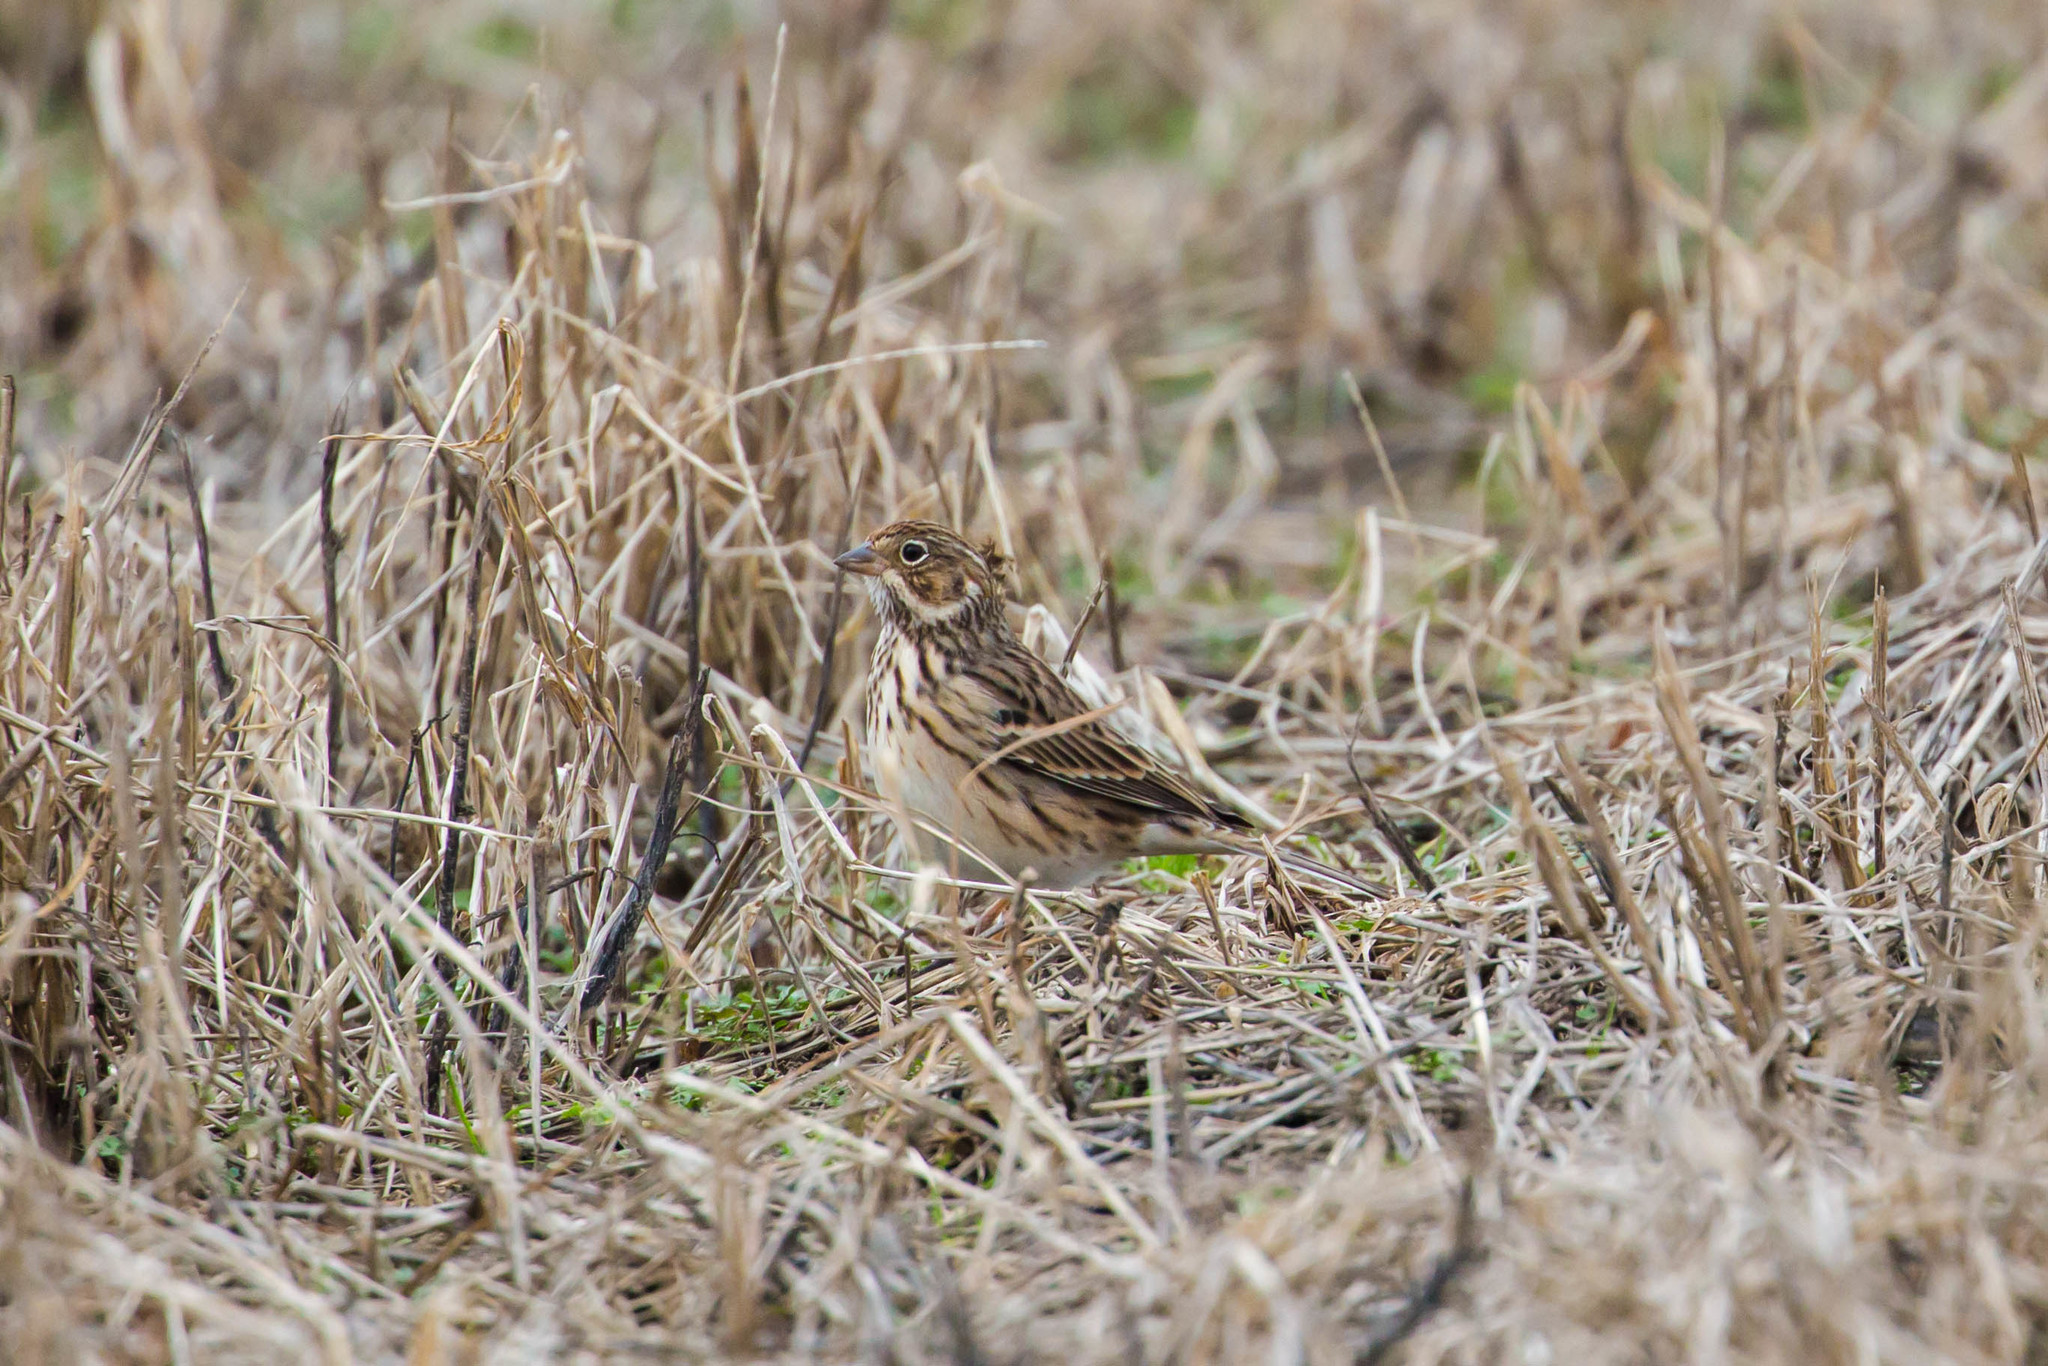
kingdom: Animalia
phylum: Chordata
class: Aves
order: Passeriformes
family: Passerellidae
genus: Pooecetes
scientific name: Pooecetes gramineus
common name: Vesper sparrow
